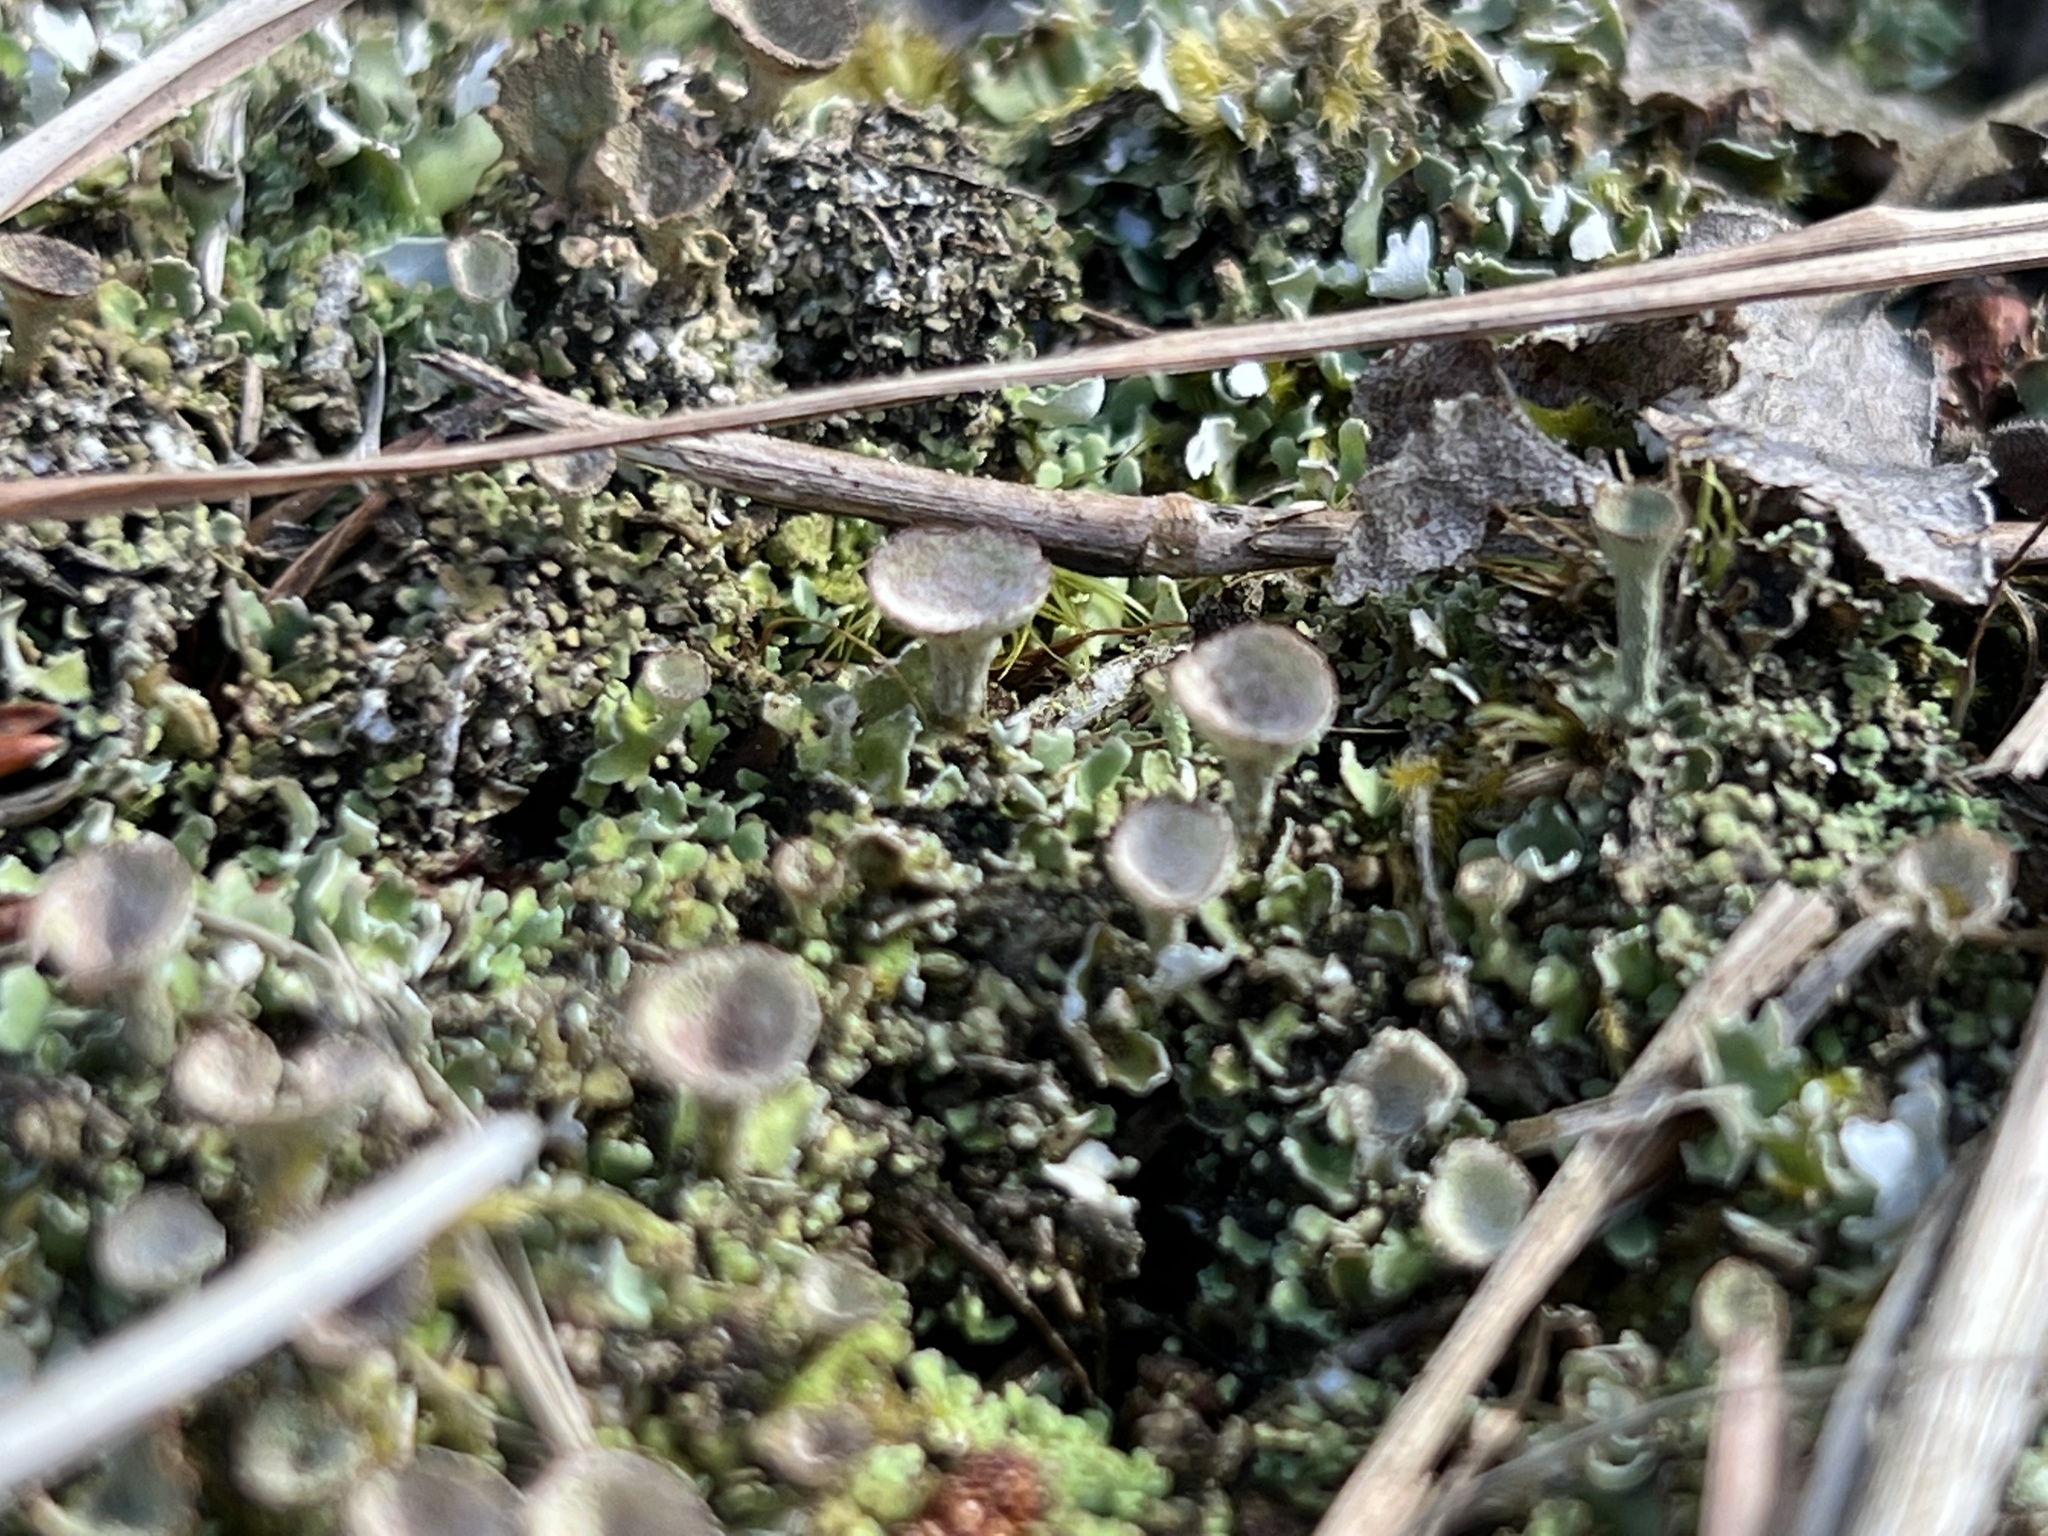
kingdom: Fungi
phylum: Ascomycota
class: Lecanoromycetes
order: Lecanorales
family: Cladoniaceae
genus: Cladonia
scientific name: Cladonia chlorophaea
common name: Mealy pixie cup
